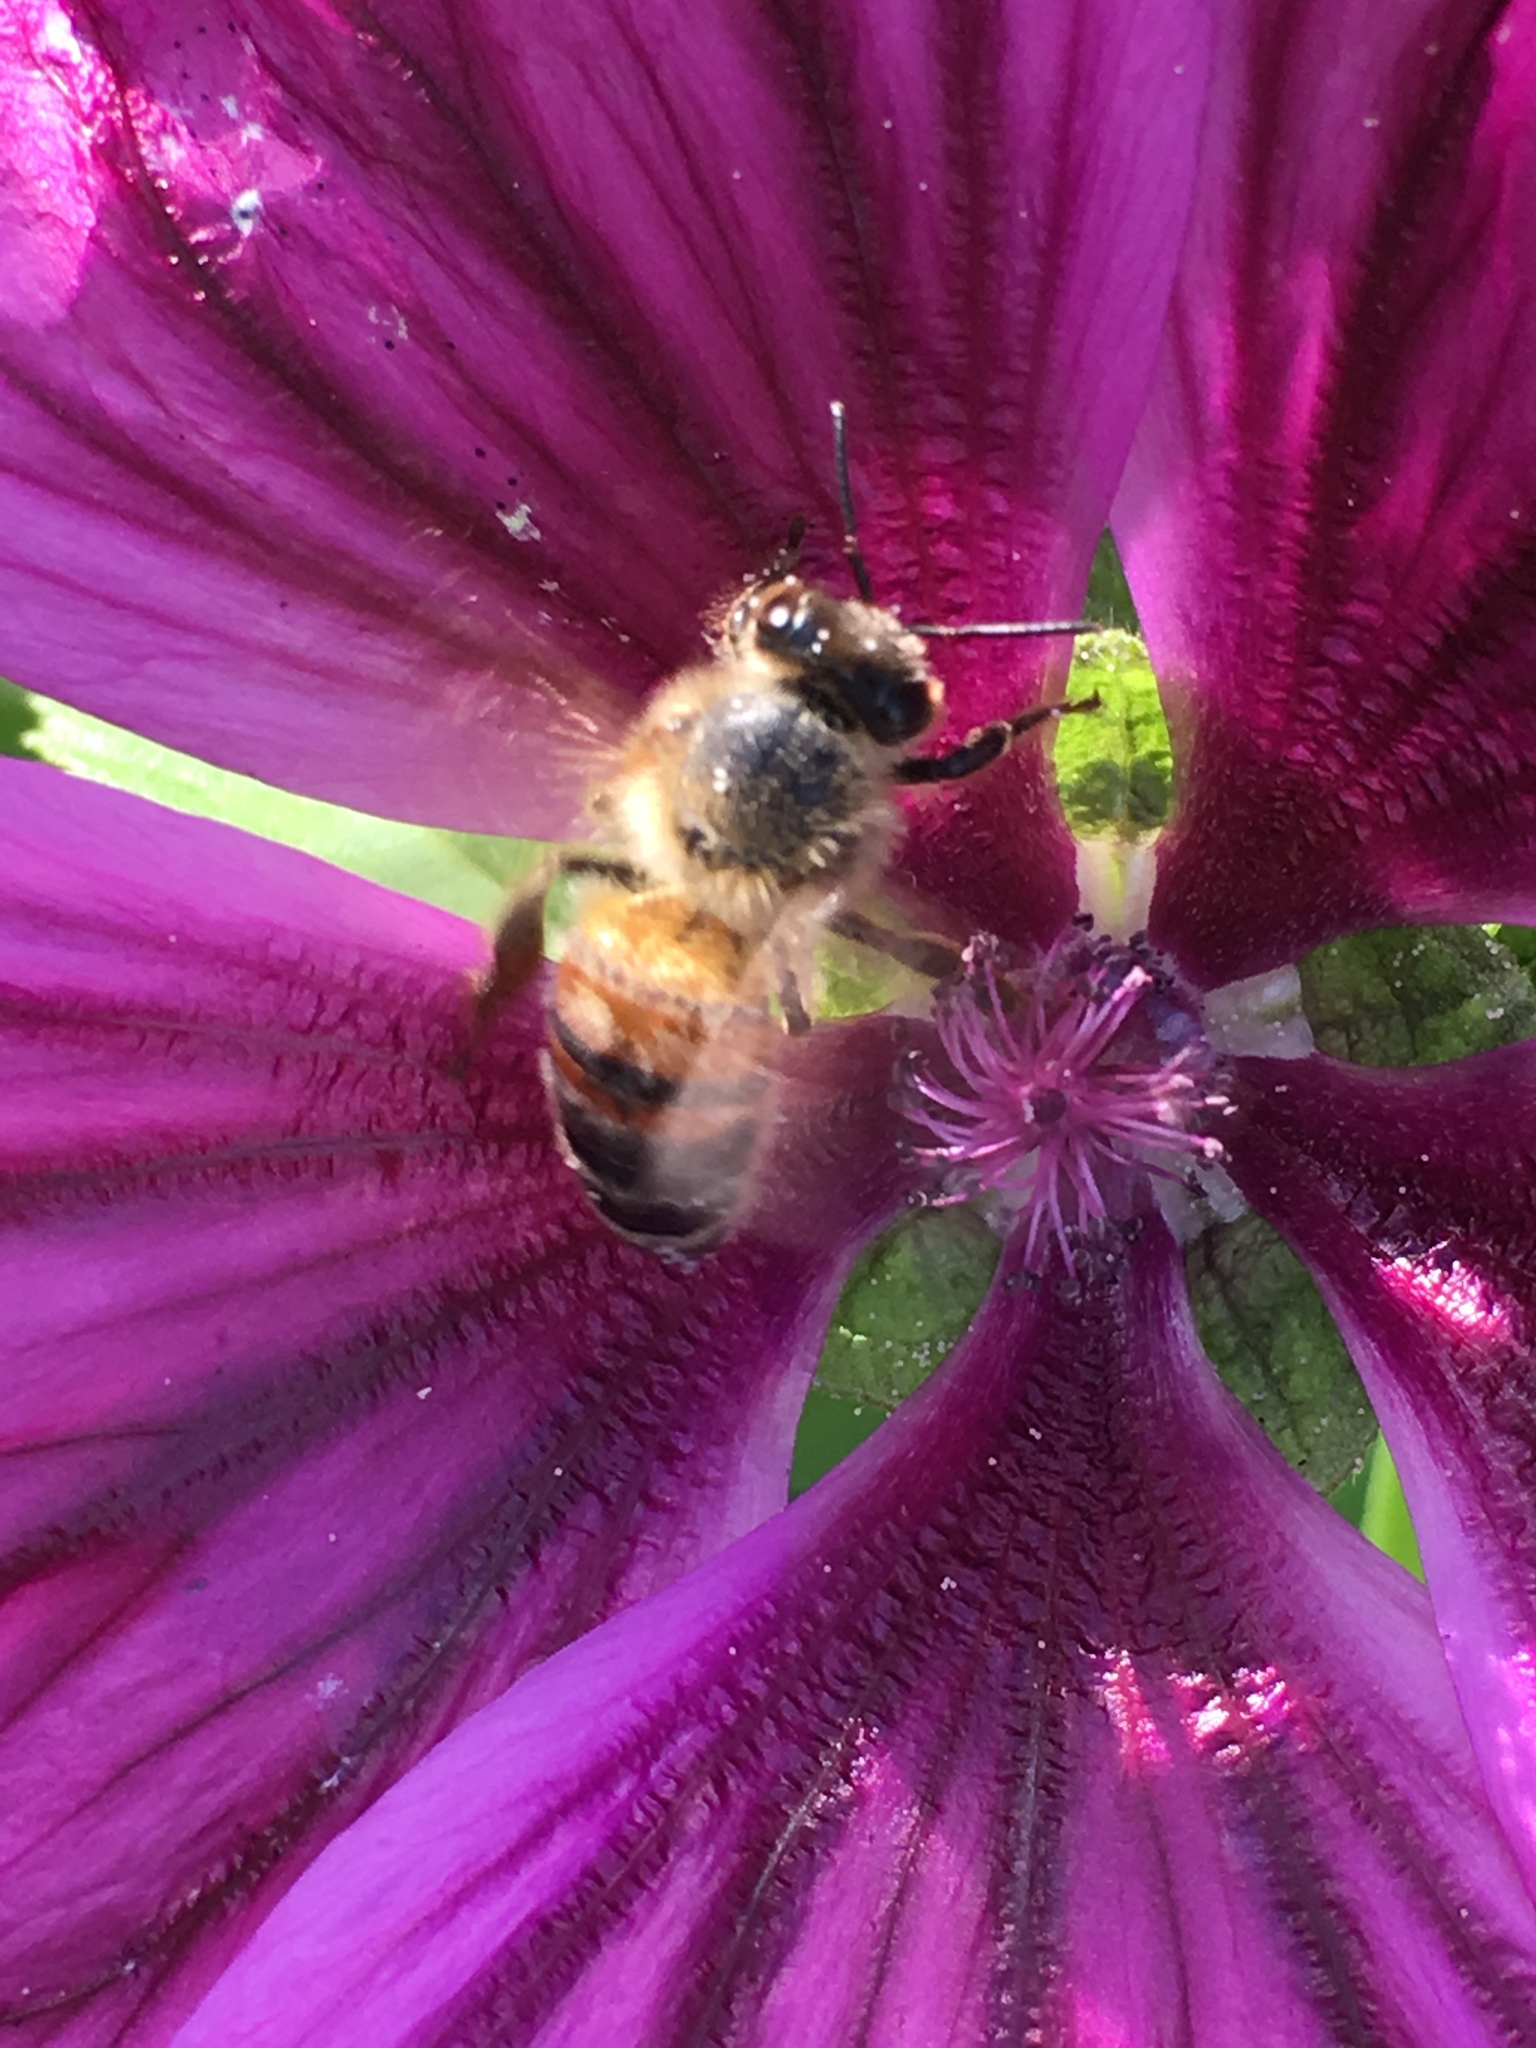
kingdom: Animalia
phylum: Arthropoda
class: Insecta
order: Hymenoptera
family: Apidae
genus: Apis
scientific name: Apis mellifera
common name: Honey bee
